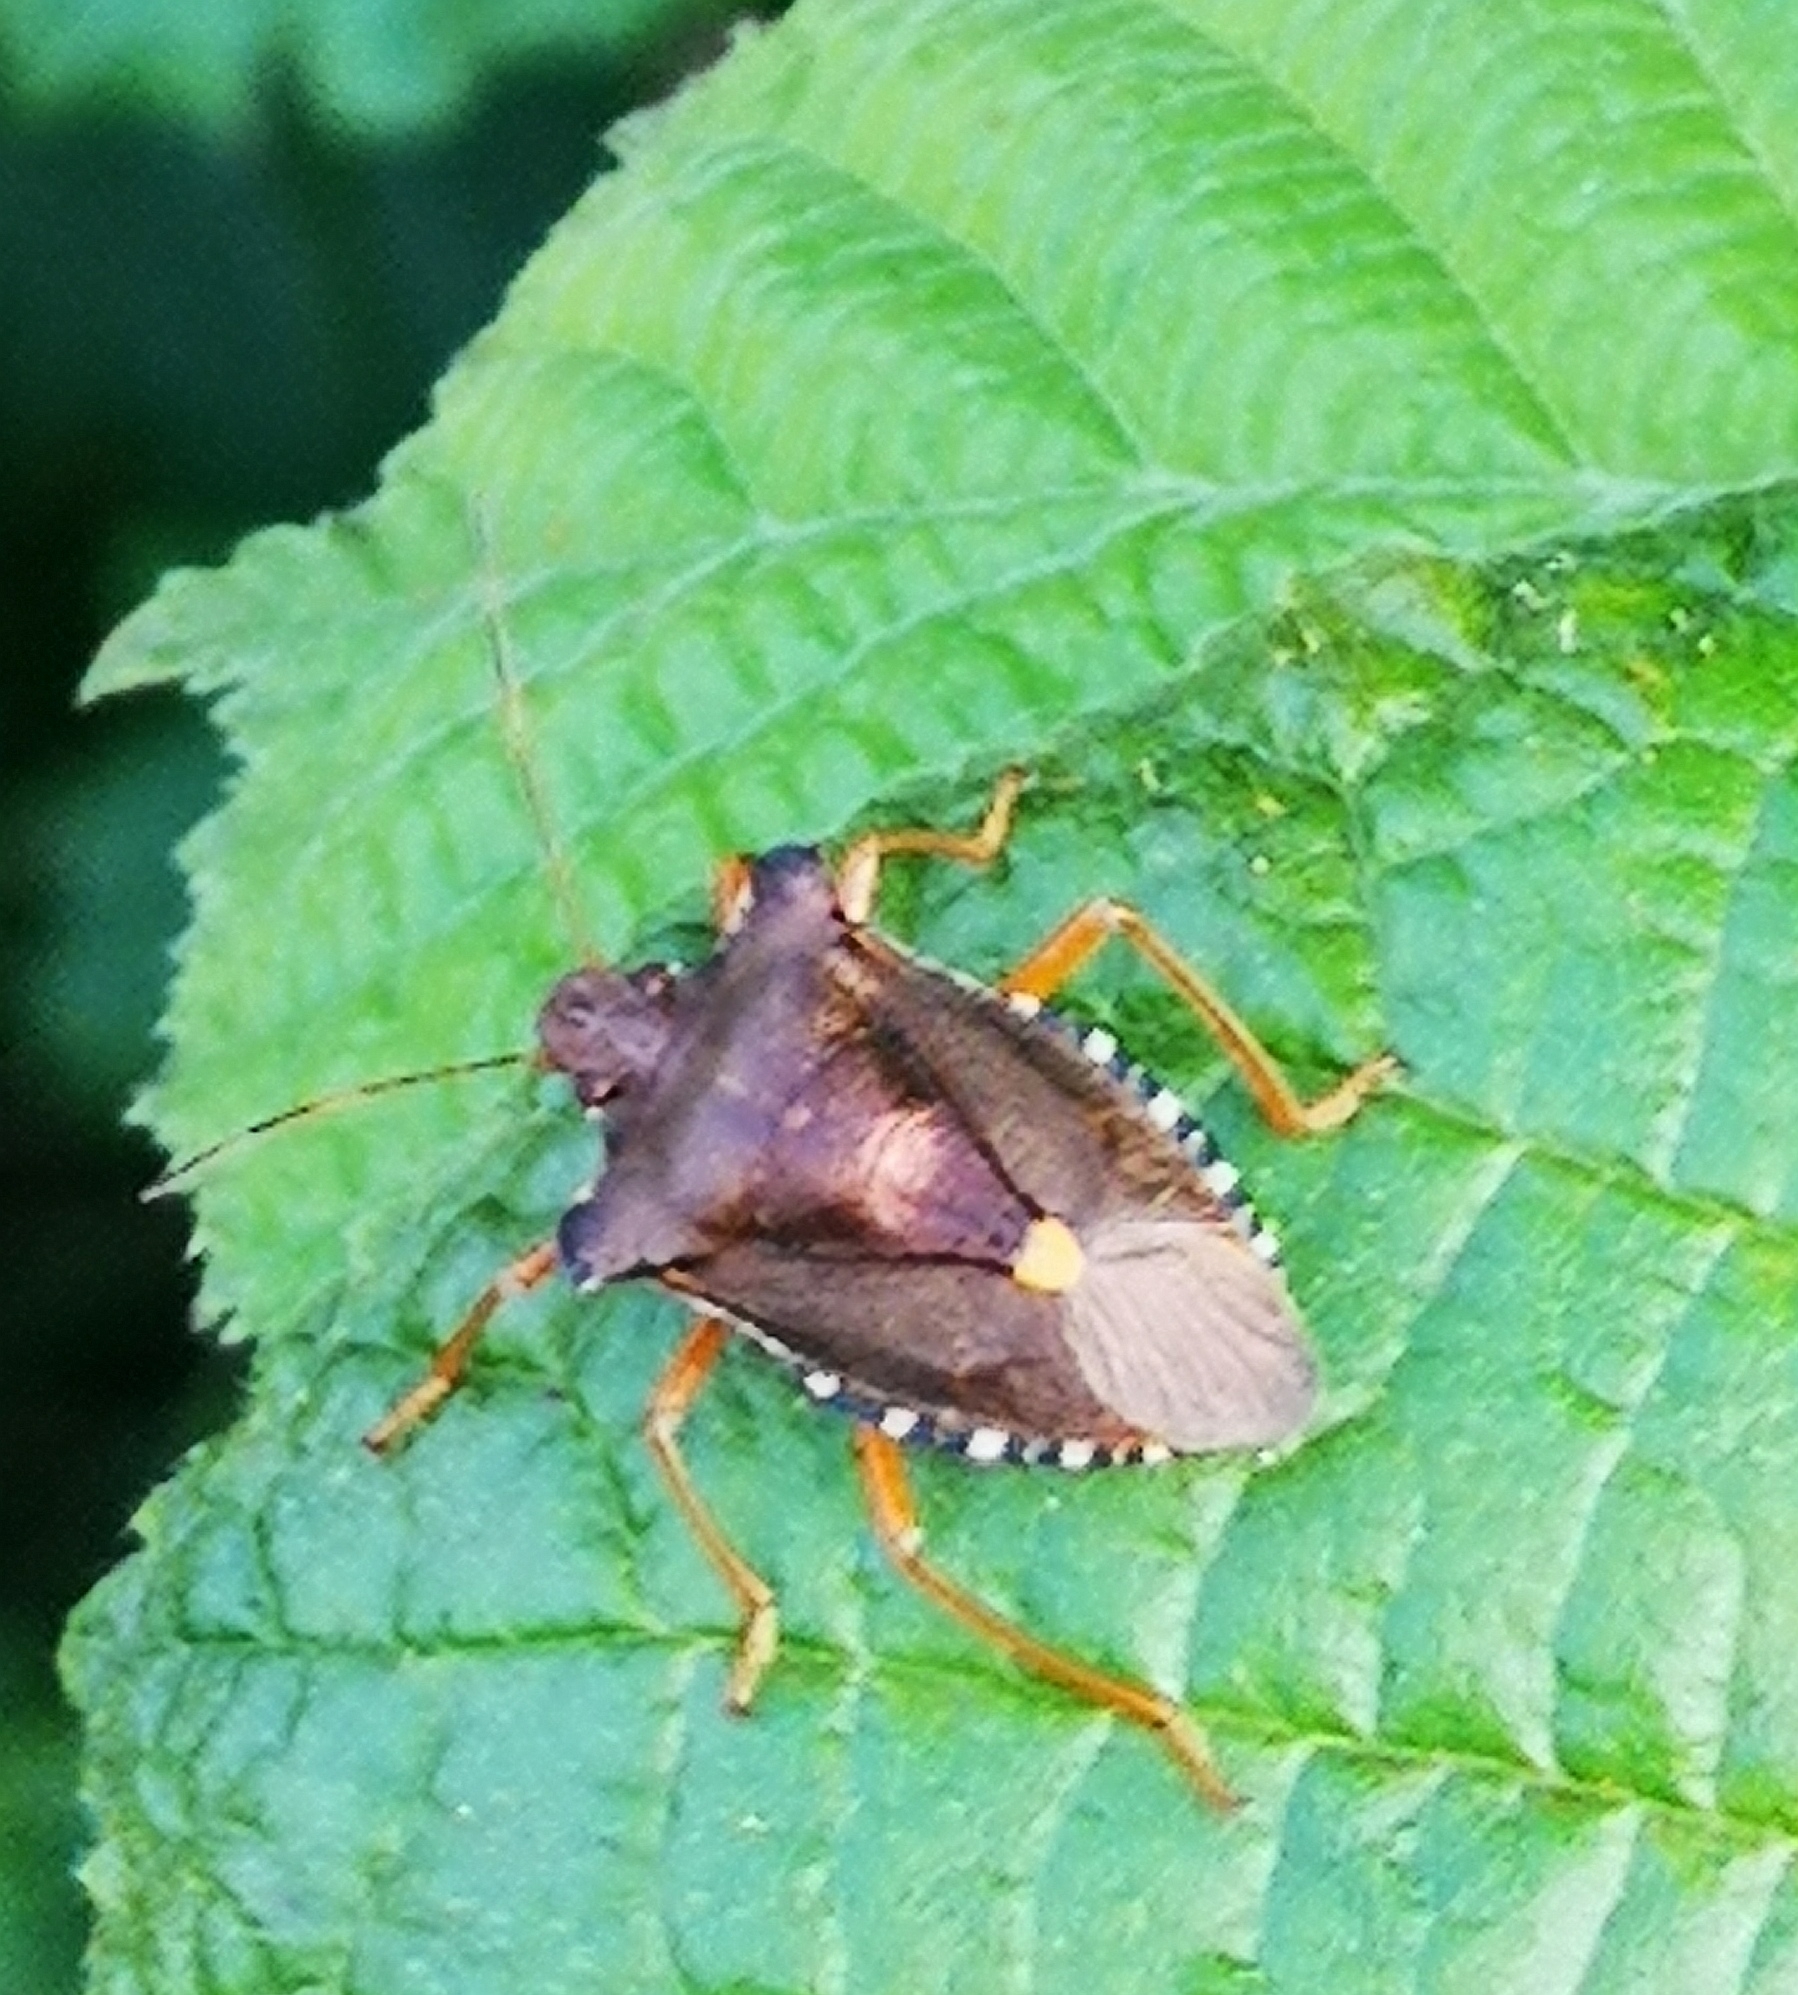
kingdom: Animalia
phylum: Arthropoda
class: Insecta
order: Hemiptera
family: Pentatomidae
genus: Pentatoma
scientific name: Pentatoma rufipes
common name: Forest bug
